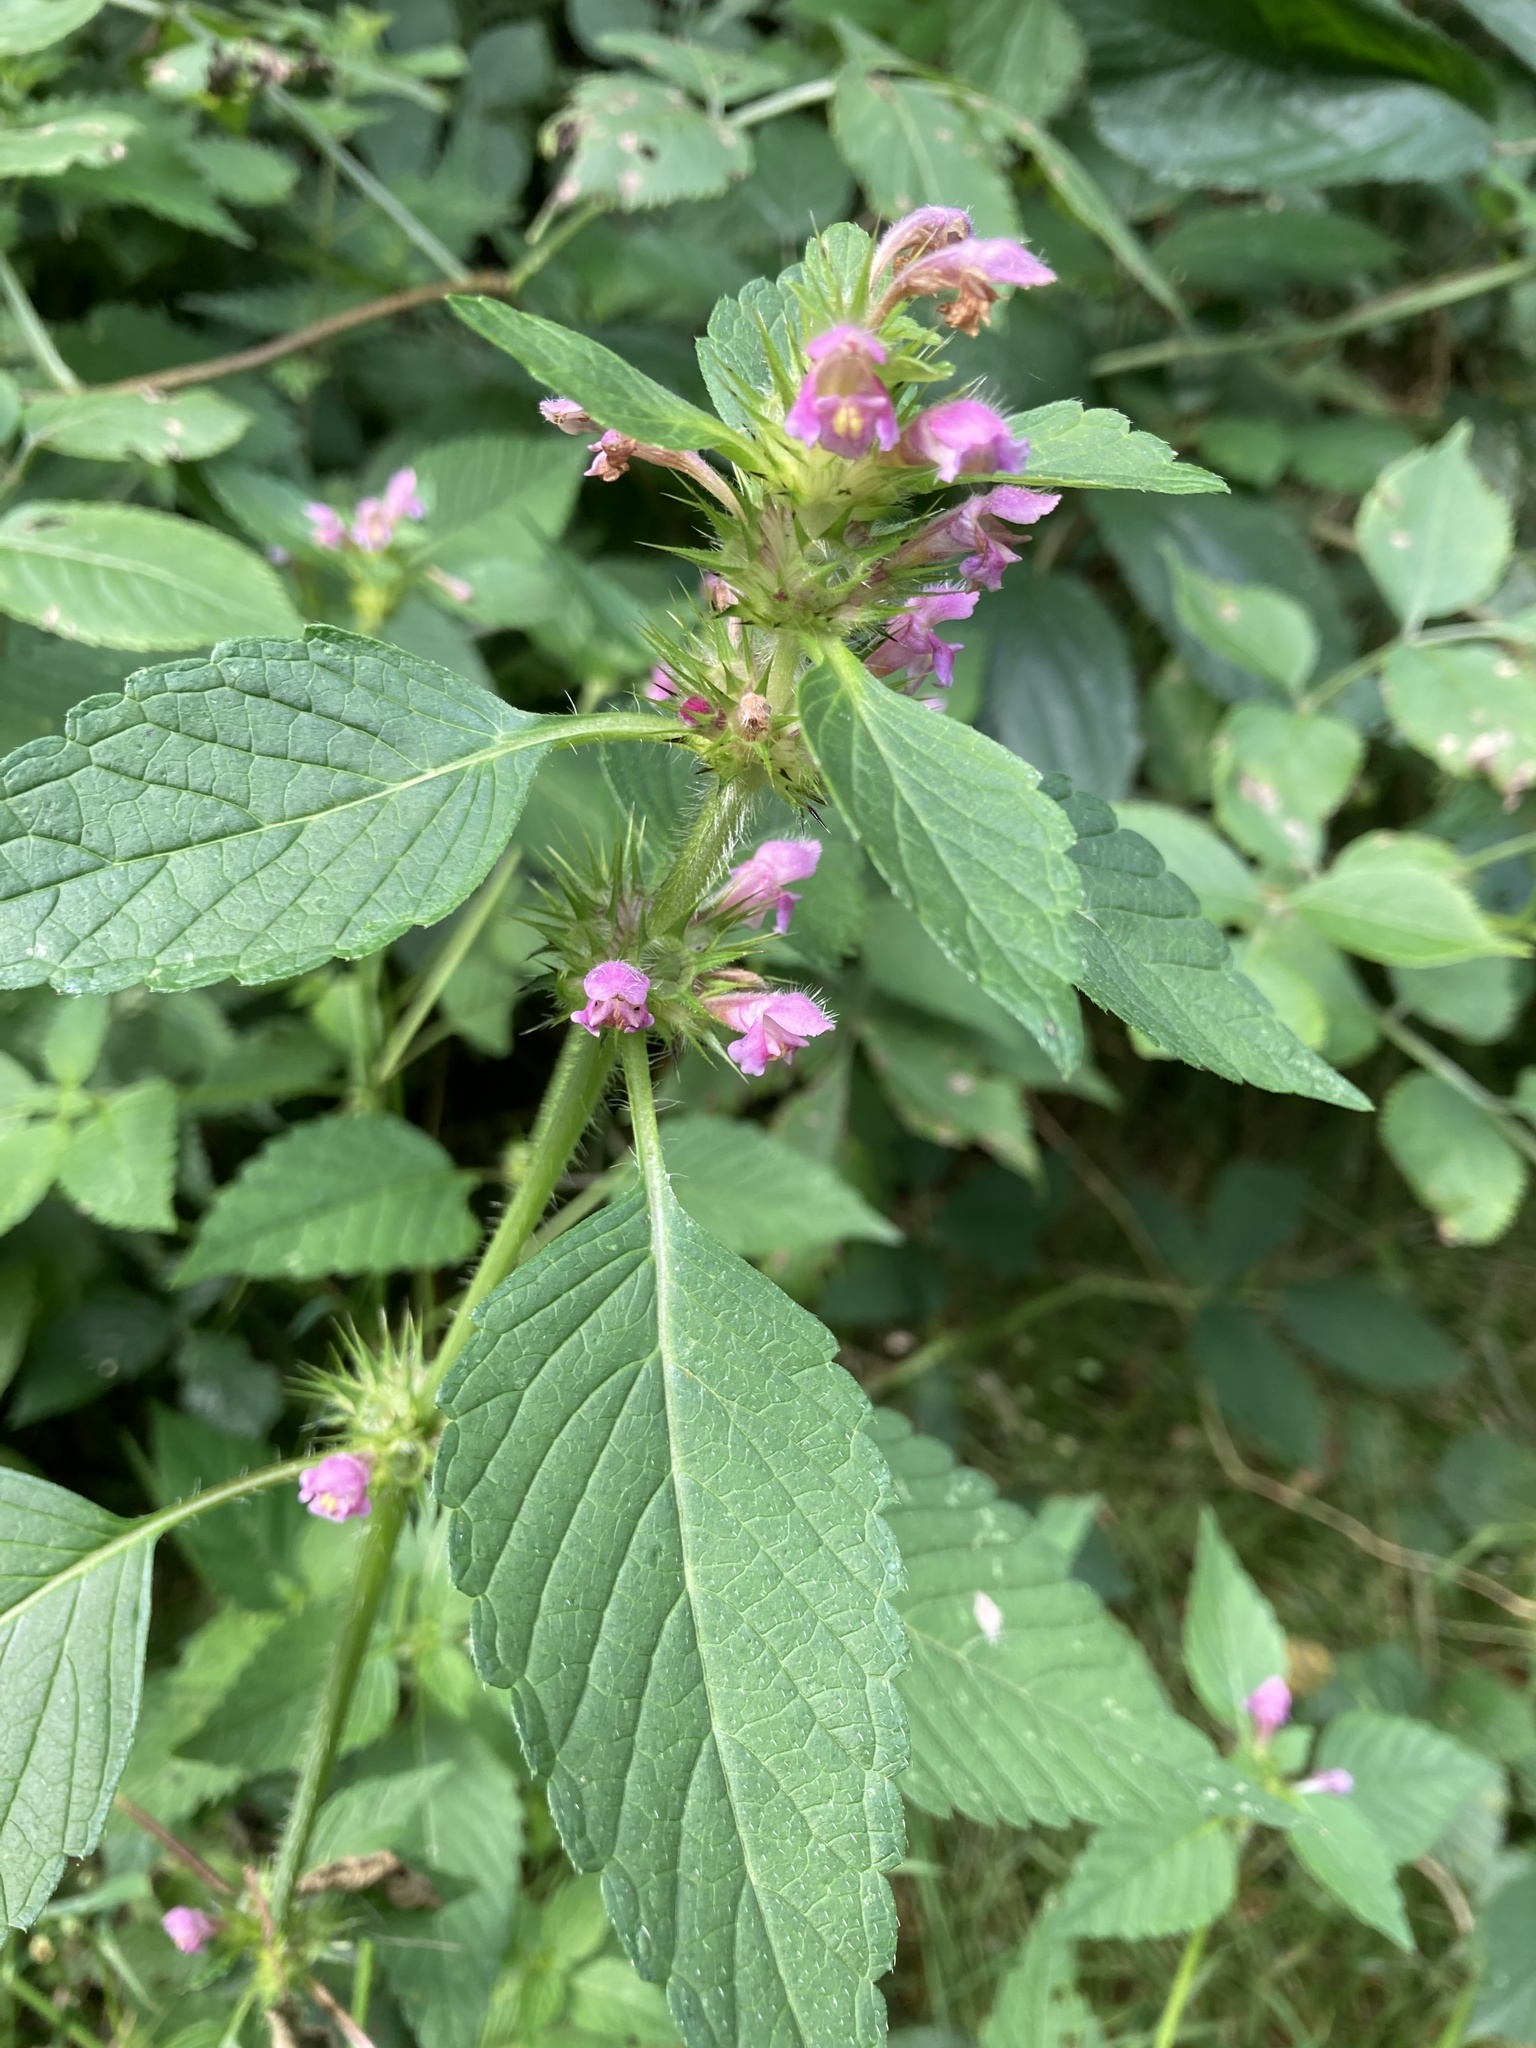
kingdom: Plantae
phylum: Tracheophyta
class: Magnoliopsida
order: Lamiales
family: Lamiaceae
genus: Galeopsis
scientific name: Galeopsis tetrahit
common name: Common hemp-nettle
